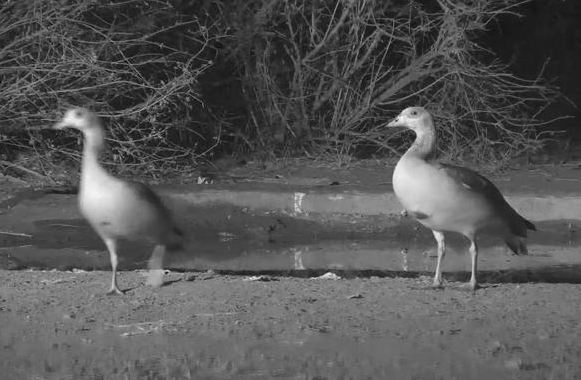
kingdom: Animalia
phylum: Chordata
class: Aves
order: Anseriformes
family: Anatidae
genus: Alopochen
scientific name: Alopochen aegyptiaca
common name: Egyptian goose
